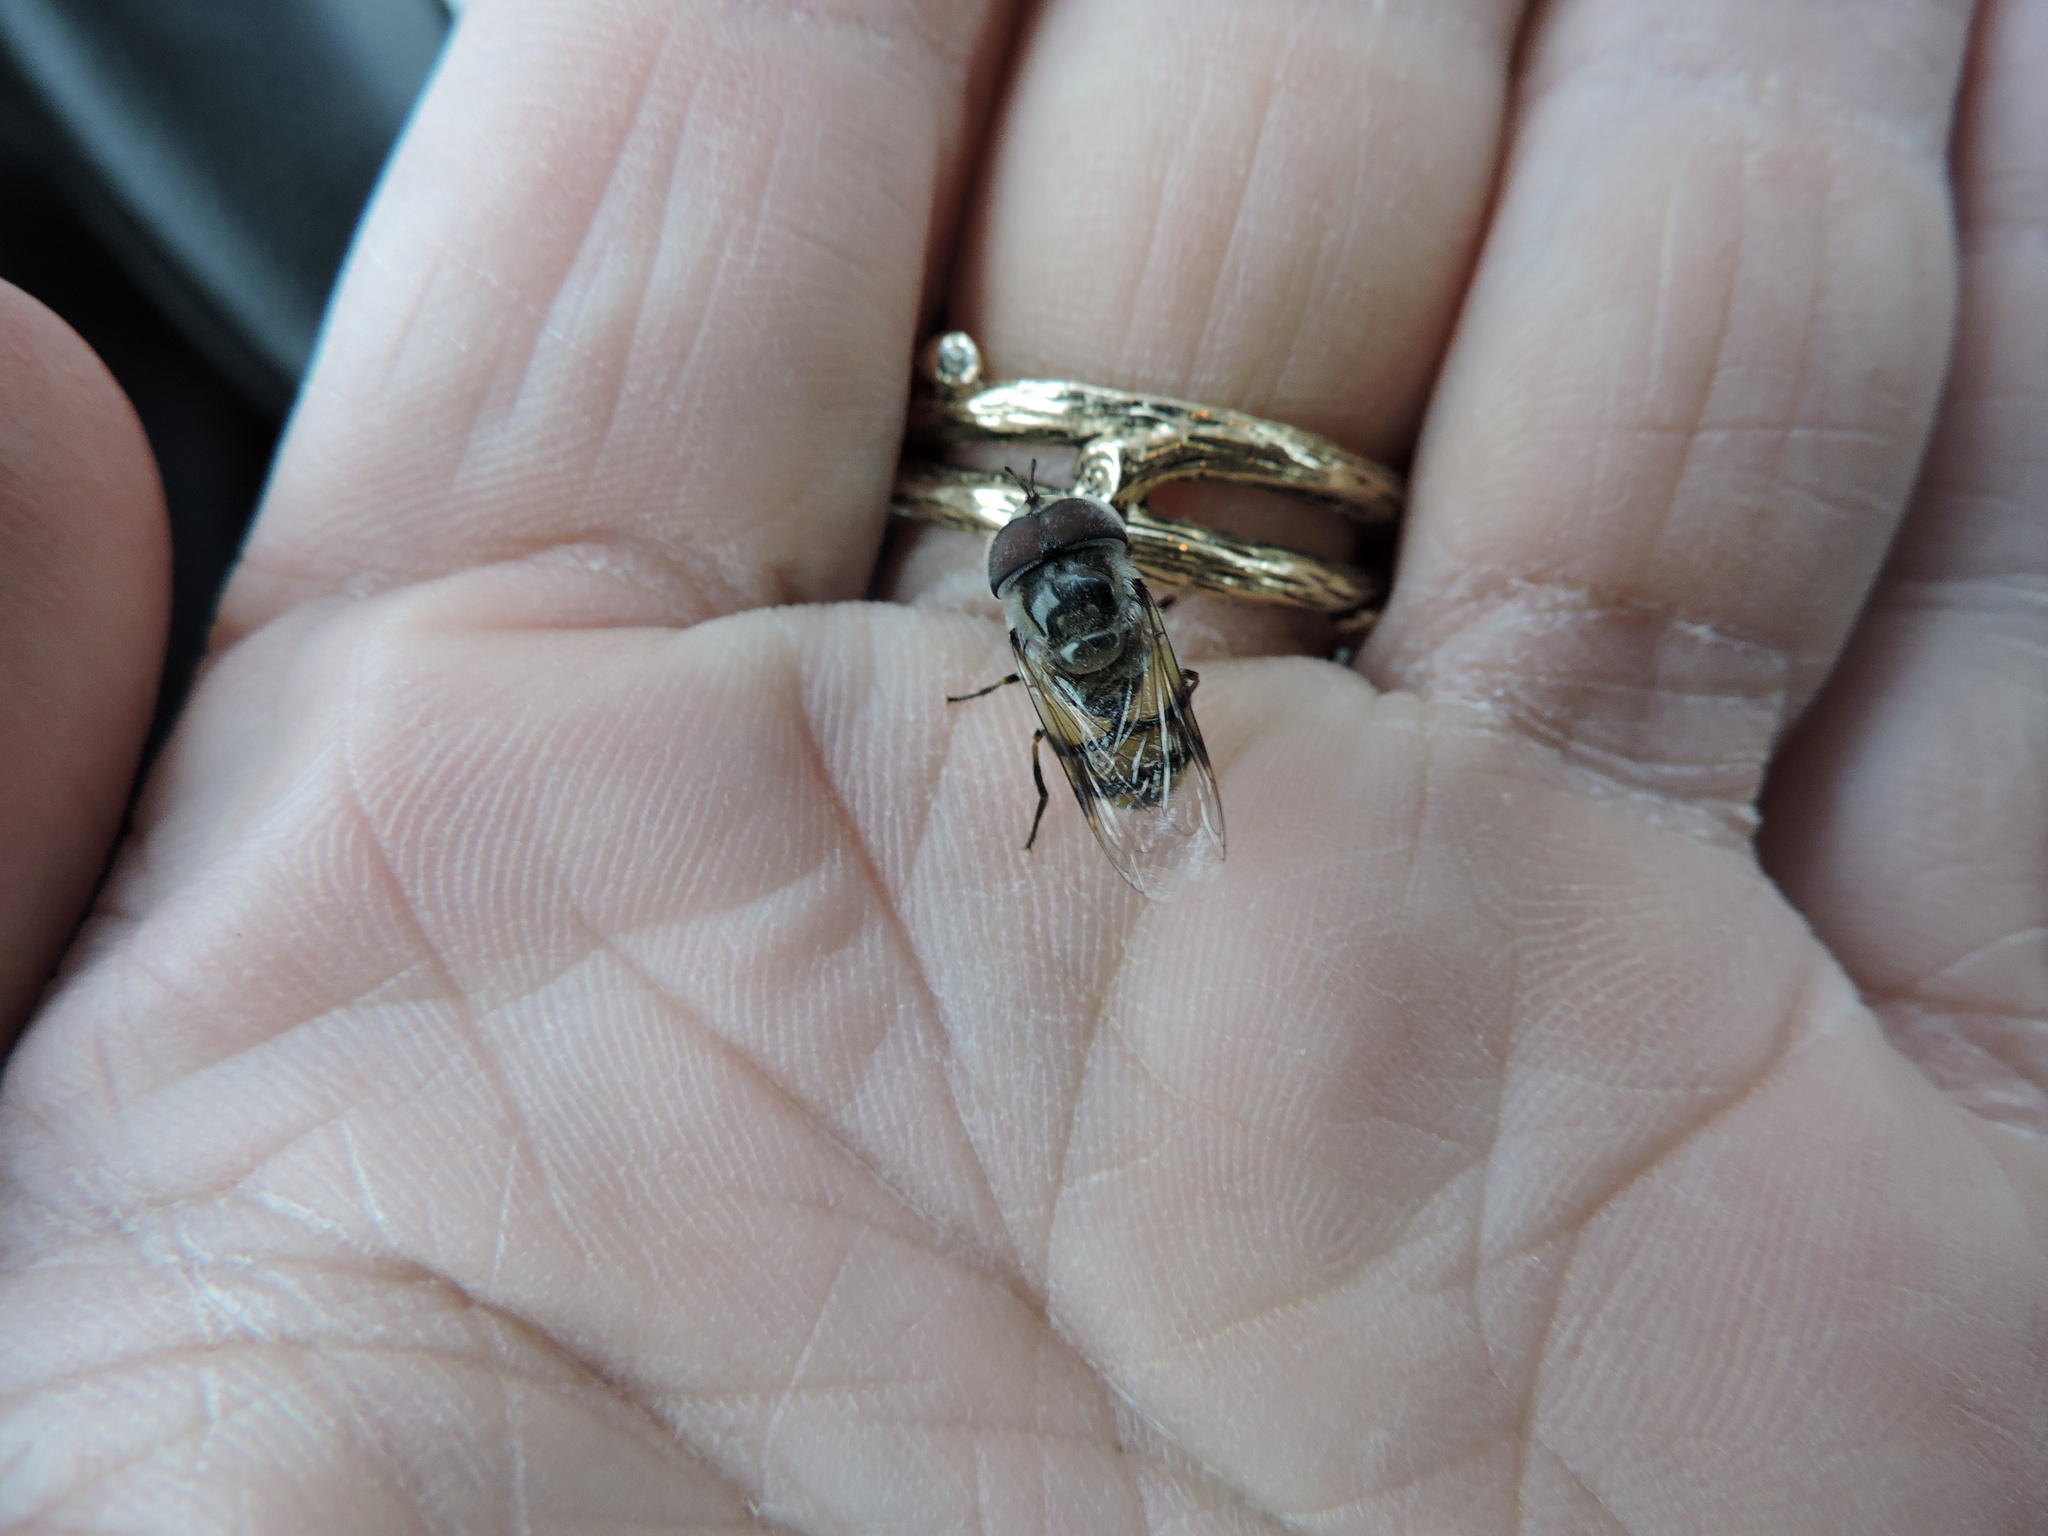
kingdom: Animalia
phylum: Arthropoda
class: Insecta
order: Diptera
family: Syrphidae
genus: Copestylum
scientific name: Copestylum fornax
